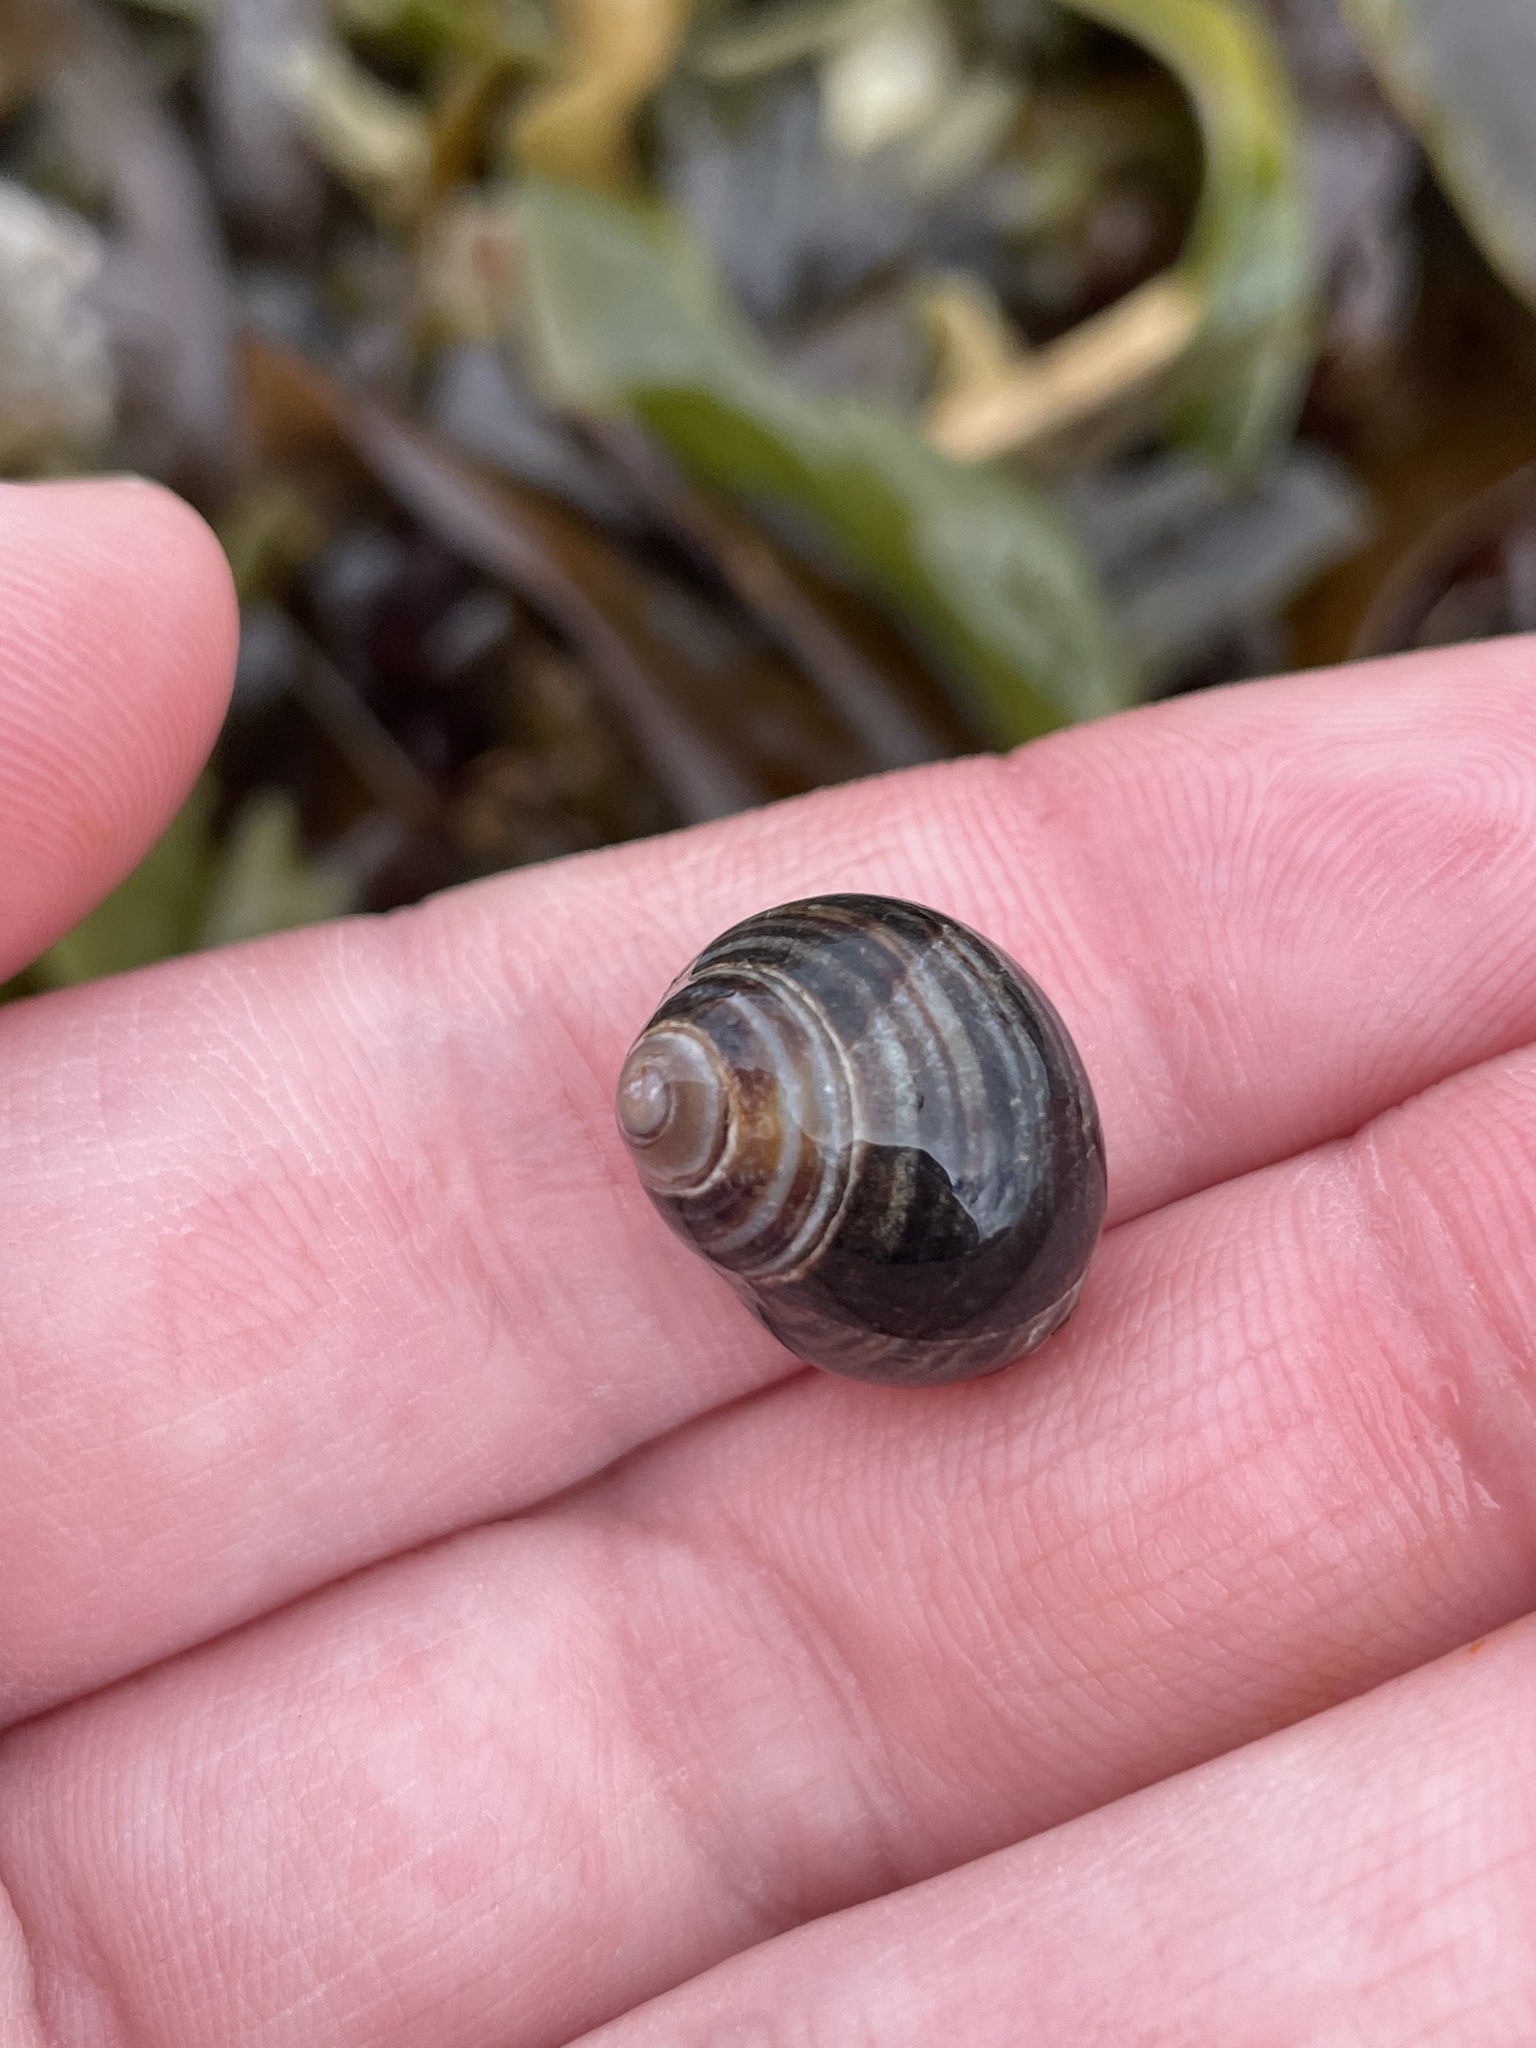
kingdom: Animalia
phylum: Mollusca
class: Gastropoda
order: Littorinimorpha
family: Littorinidae
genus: Littorina
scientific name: Littorina littorea
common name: Common periwinkle
